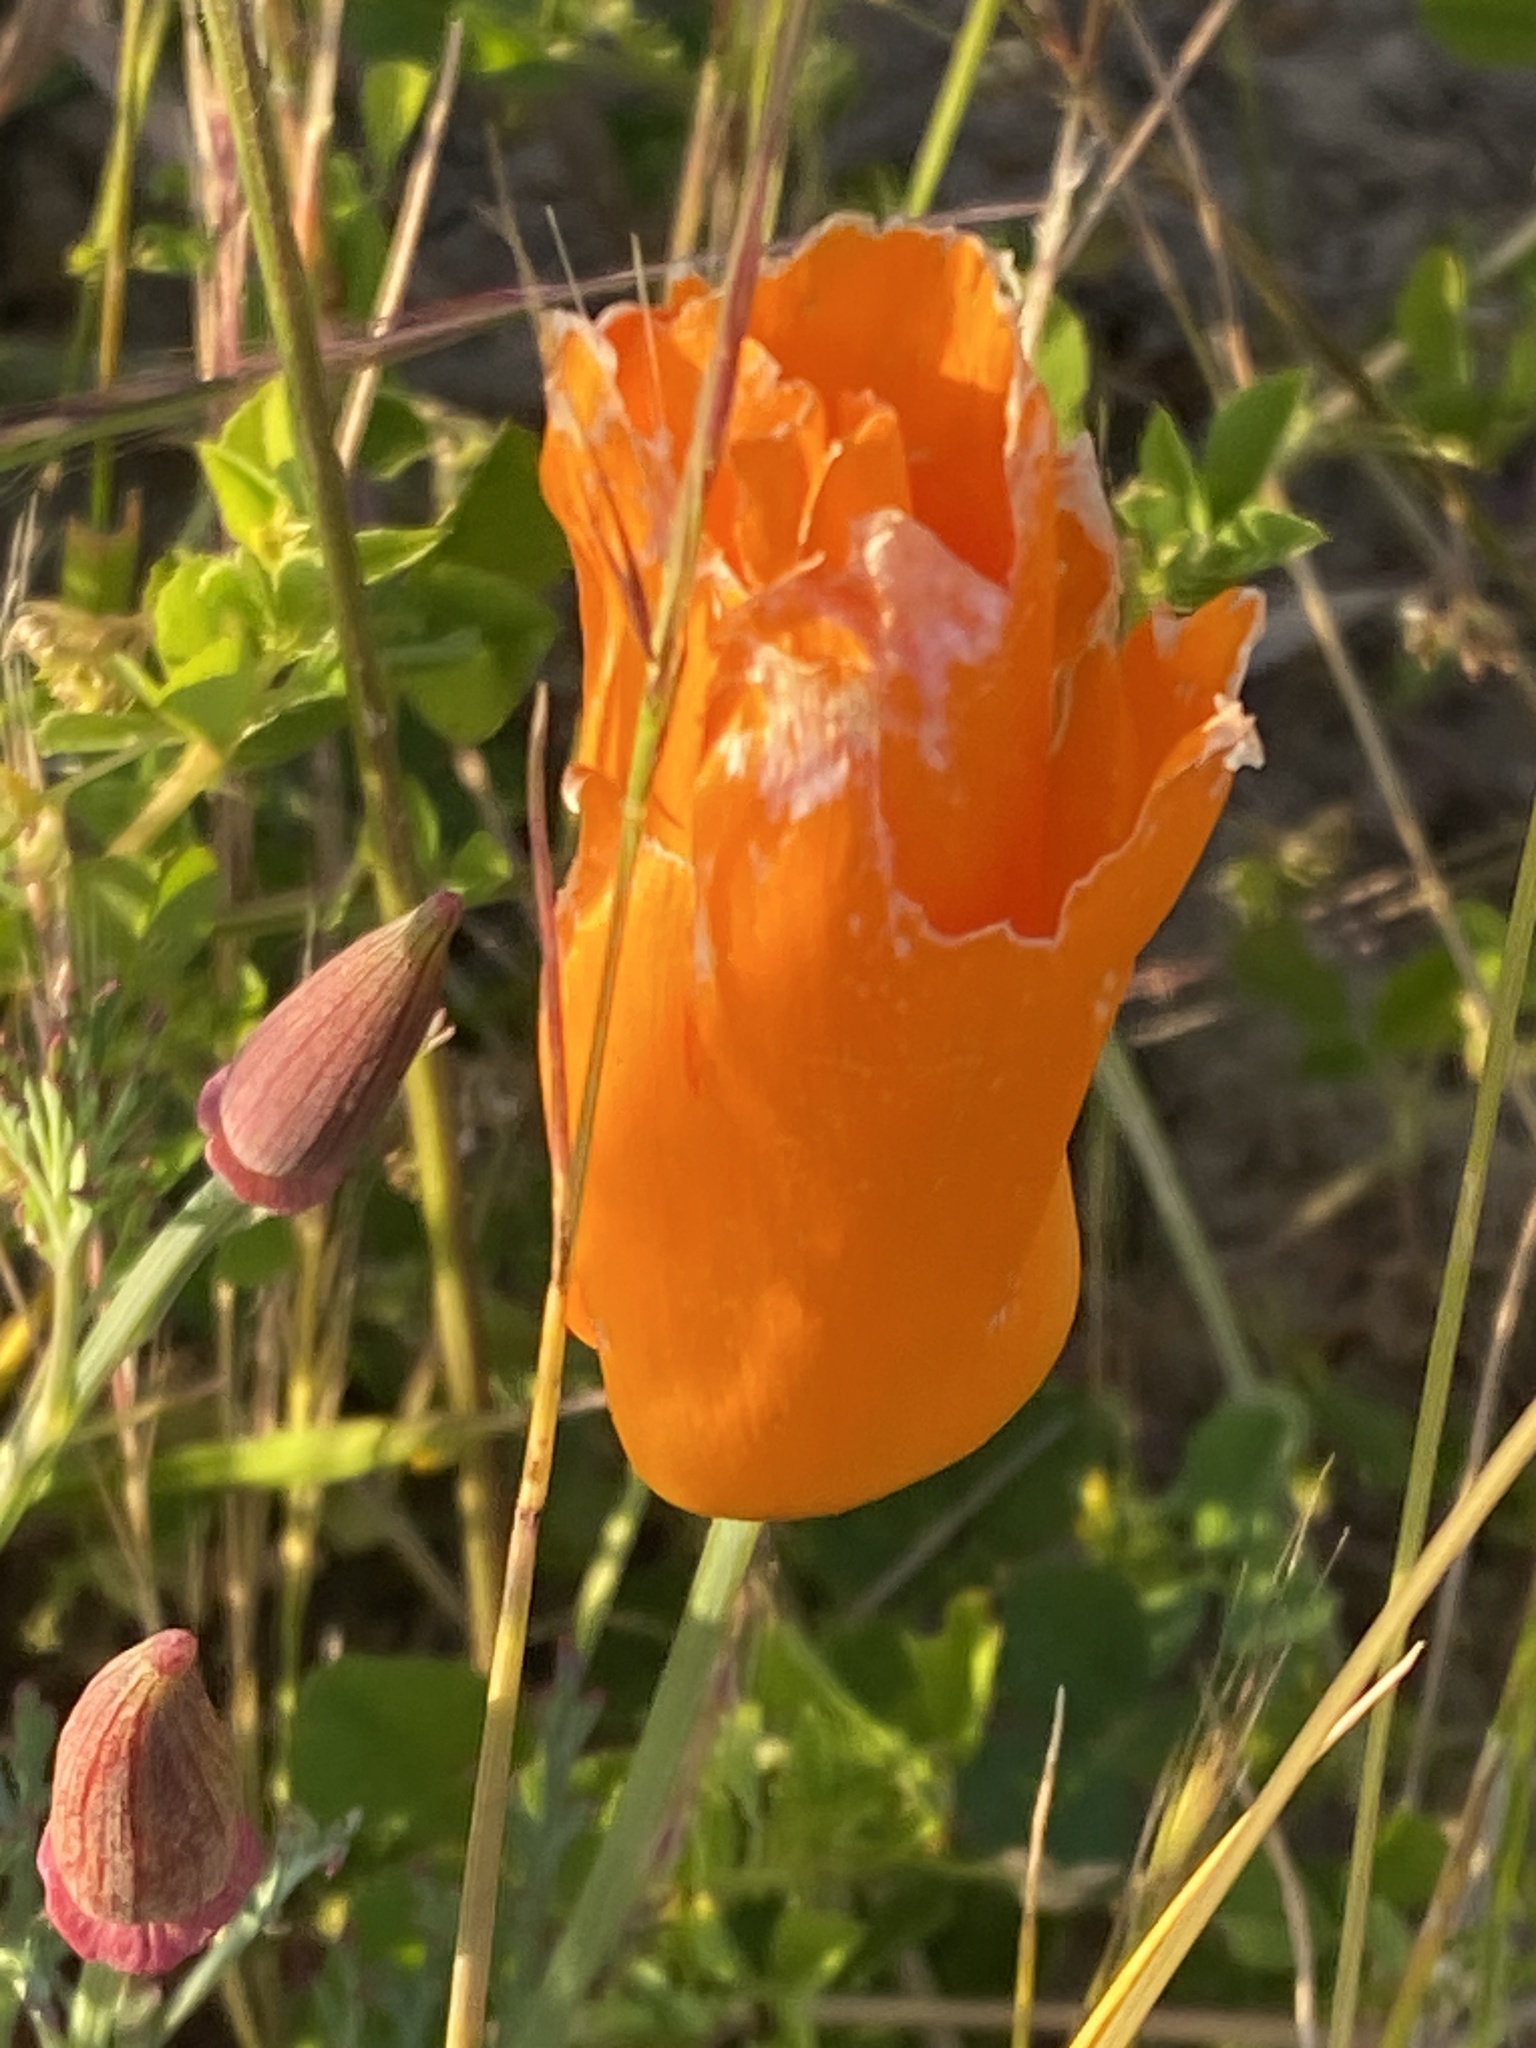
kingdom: Plantae
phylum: Tracheophyta
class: Magnoliopsida
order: Ranunculales
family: Papaveraceae
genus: Eschscholzia
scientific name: Eschscholzia californica
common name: California poppy
